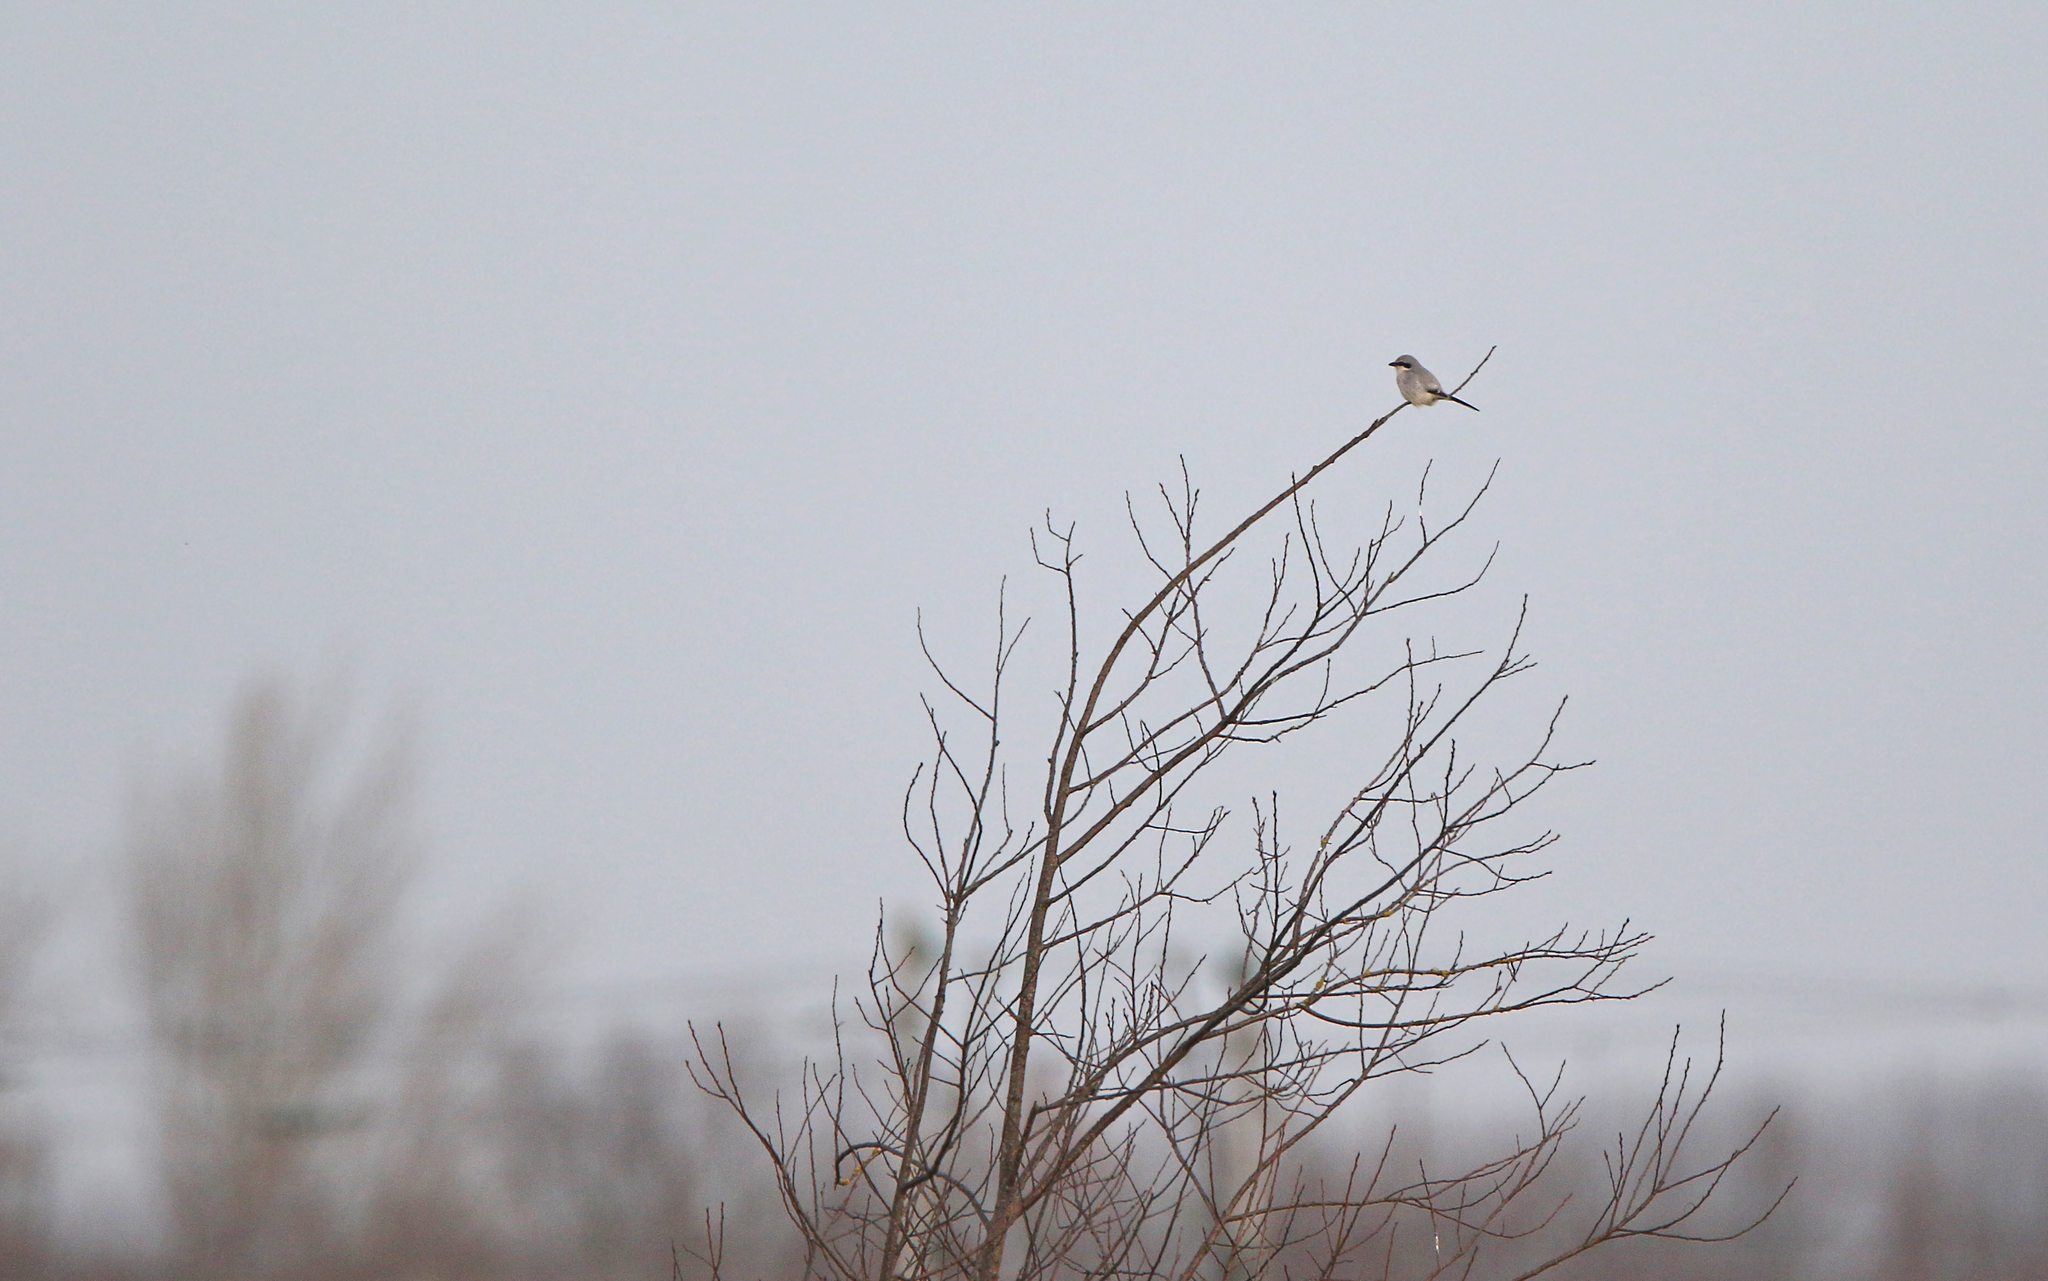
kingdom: Animalia
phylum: Chordata
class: Aves
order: Passeriformes
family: Laniidae
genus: Lanius
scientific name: Lanius excubitor
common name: Great grey shrike
